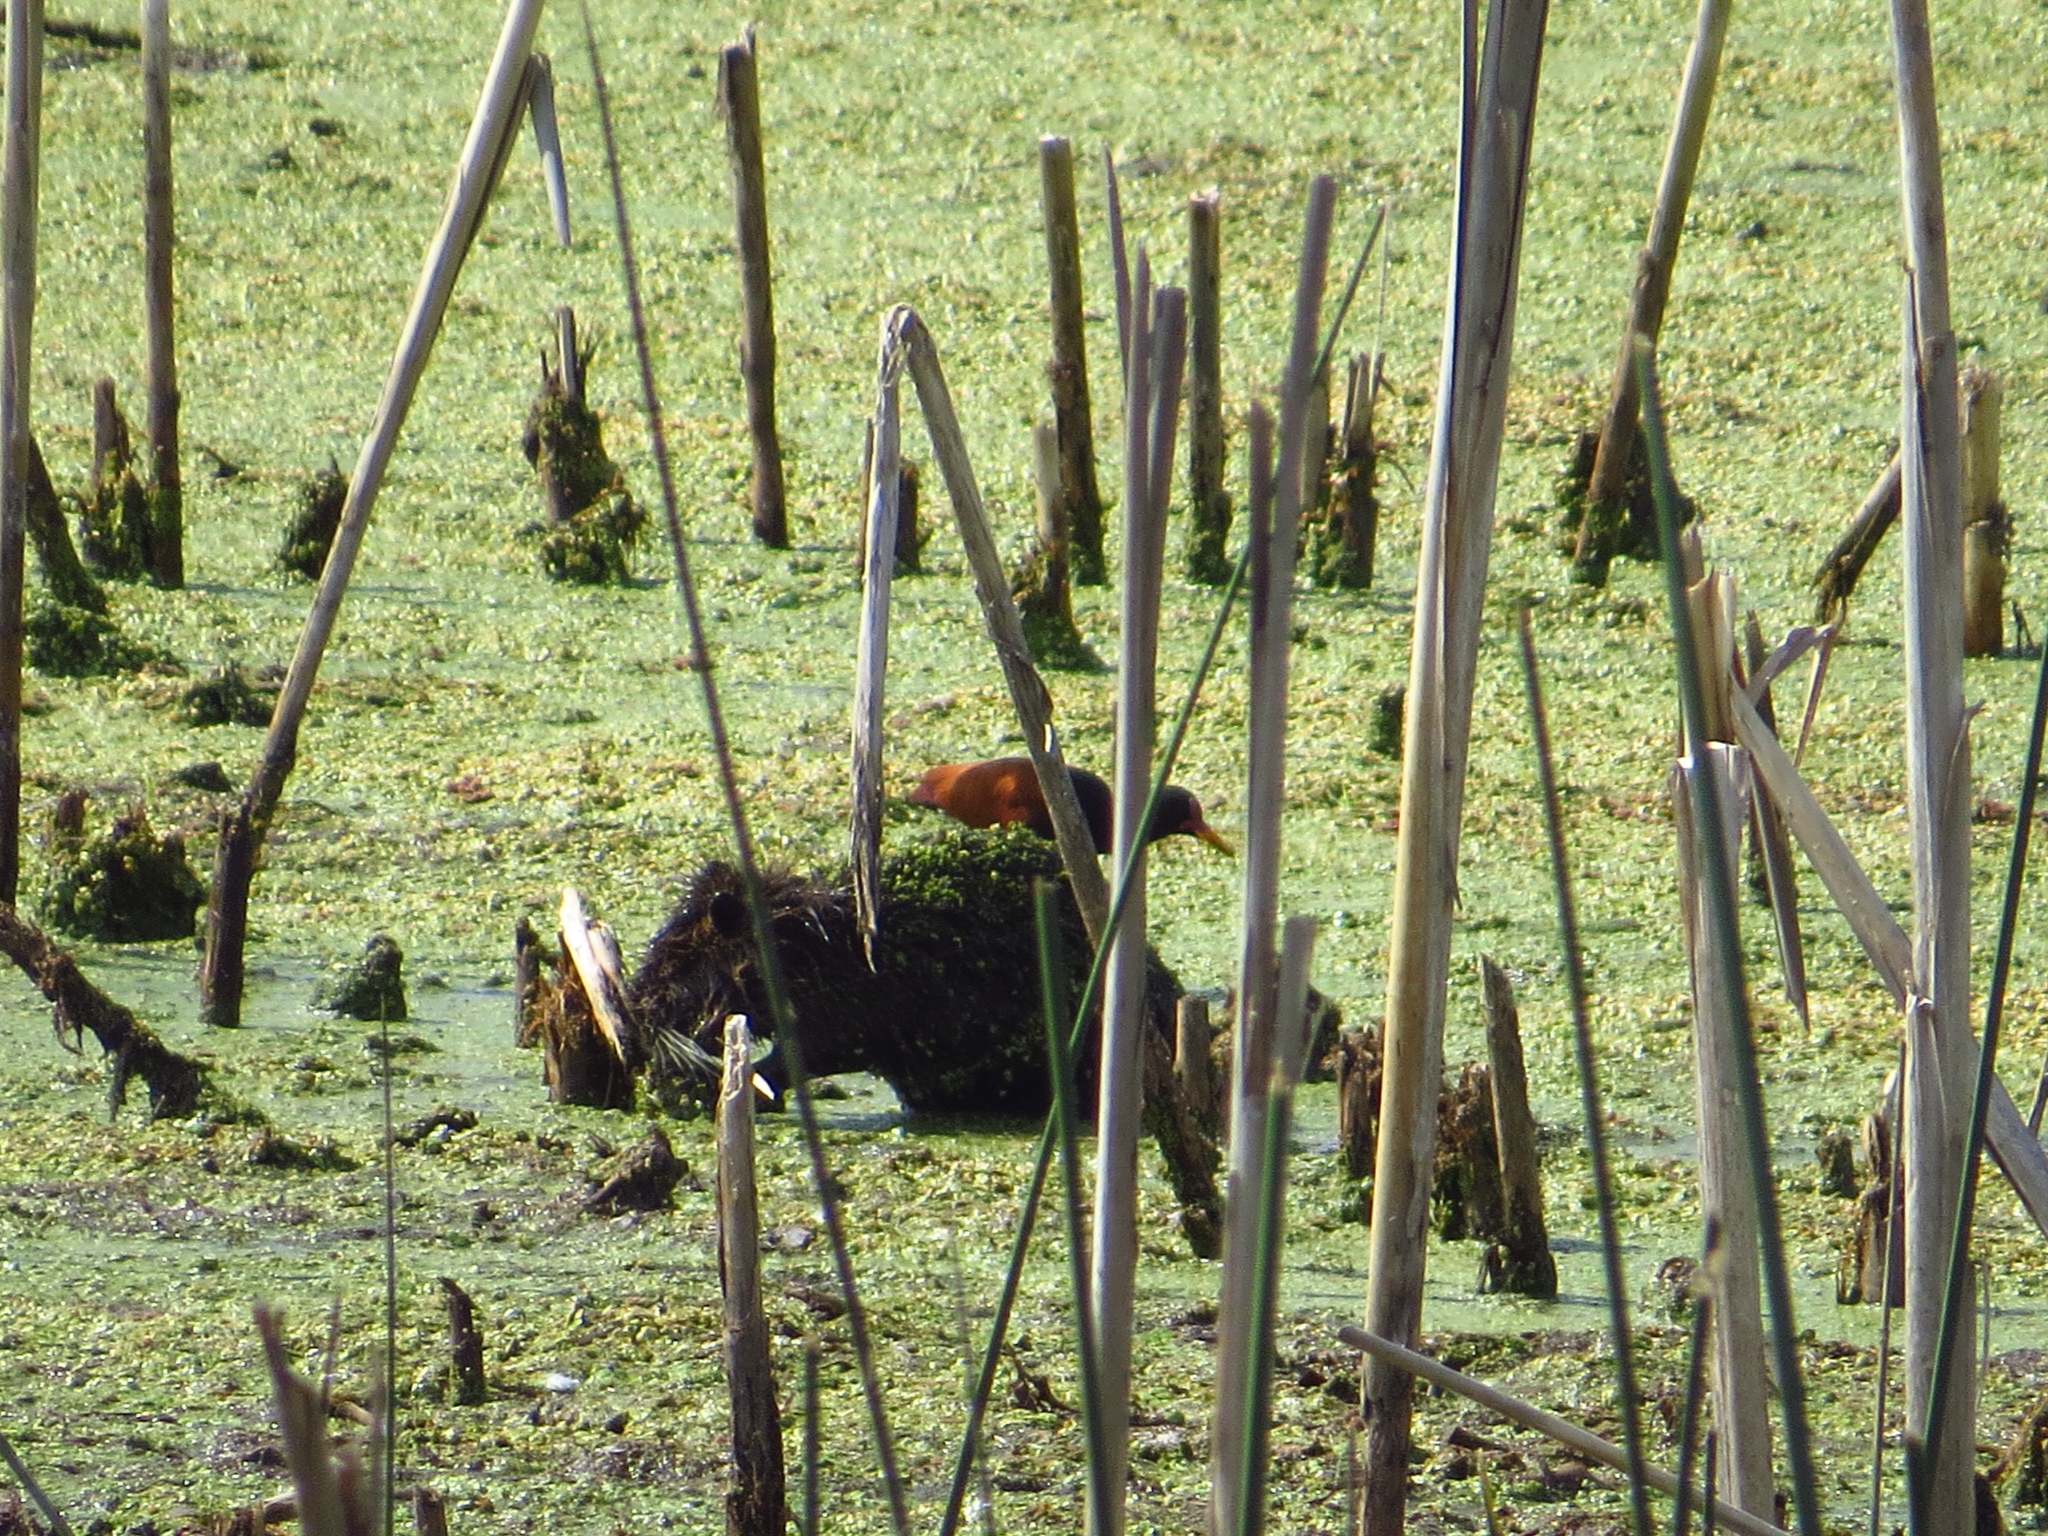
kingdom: Animalia
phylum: Chordata
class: Aves
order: Charadriiformes
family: Jacanidae
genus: Jacana
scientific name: Jacana jacana
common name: Wattled jacana
